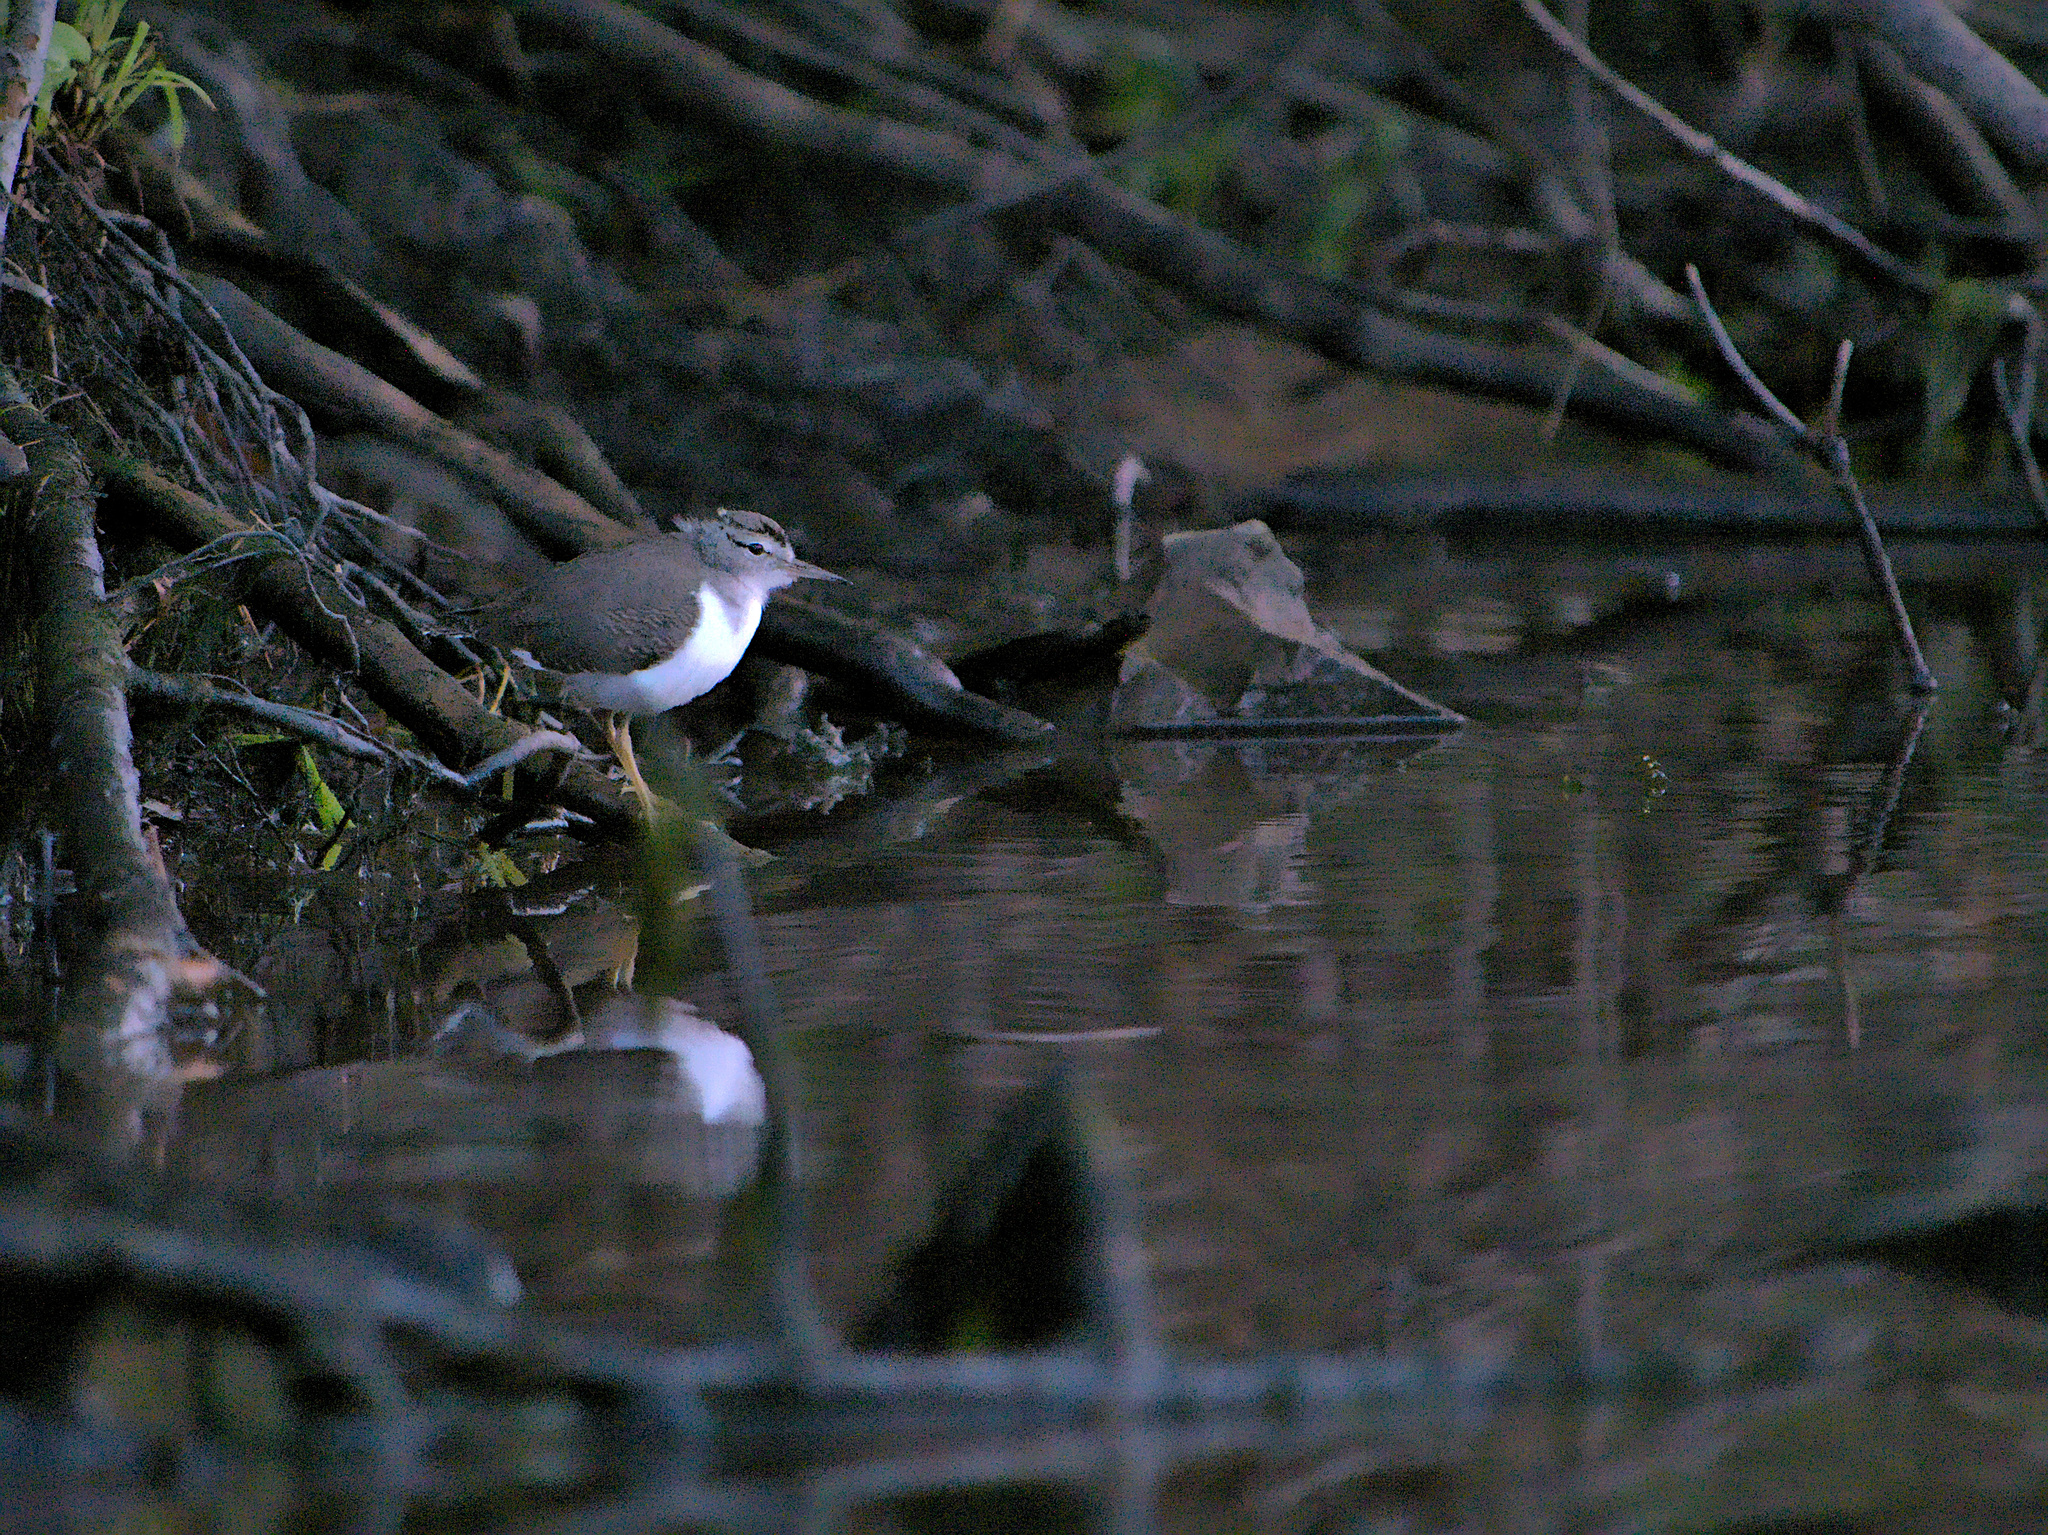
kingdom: Animalia
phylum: Chordata
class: Aves
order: Charadriiformes
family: Scolopacidae
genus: Actitis
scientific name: Actitis macularius
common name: Spotted sandpiper
